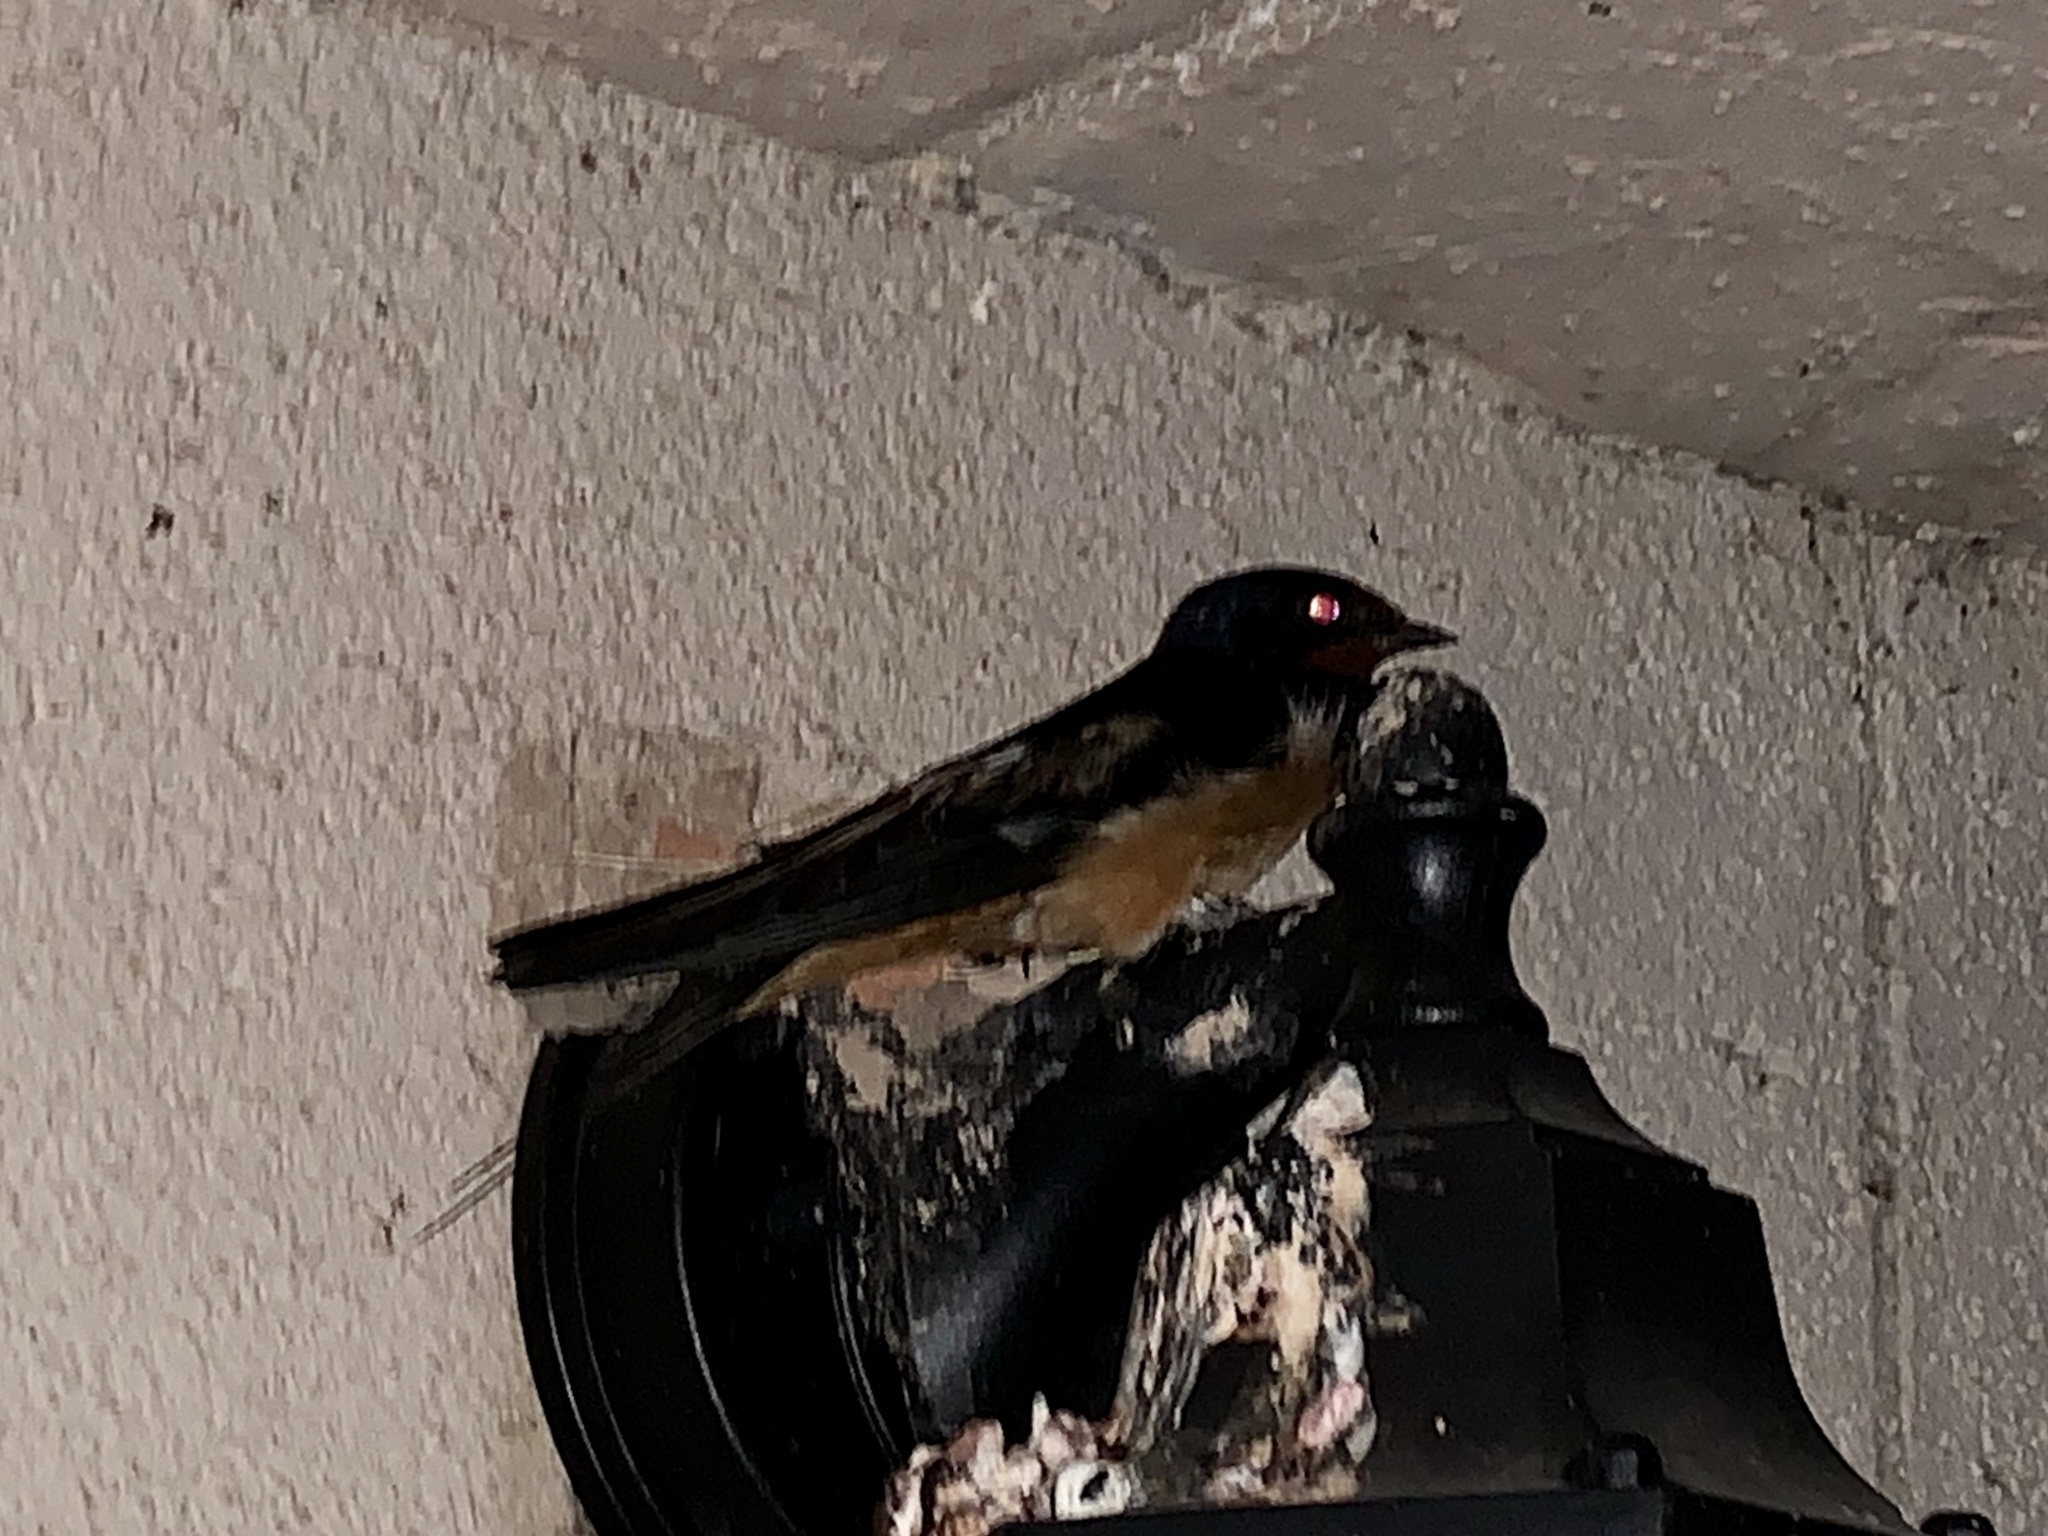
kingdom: Animalia
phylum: Chordata
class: Aves
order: Passeriformes
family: Hirundinidae
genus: Hirundo
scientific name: Hirundo rustica
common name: Barn swallow
